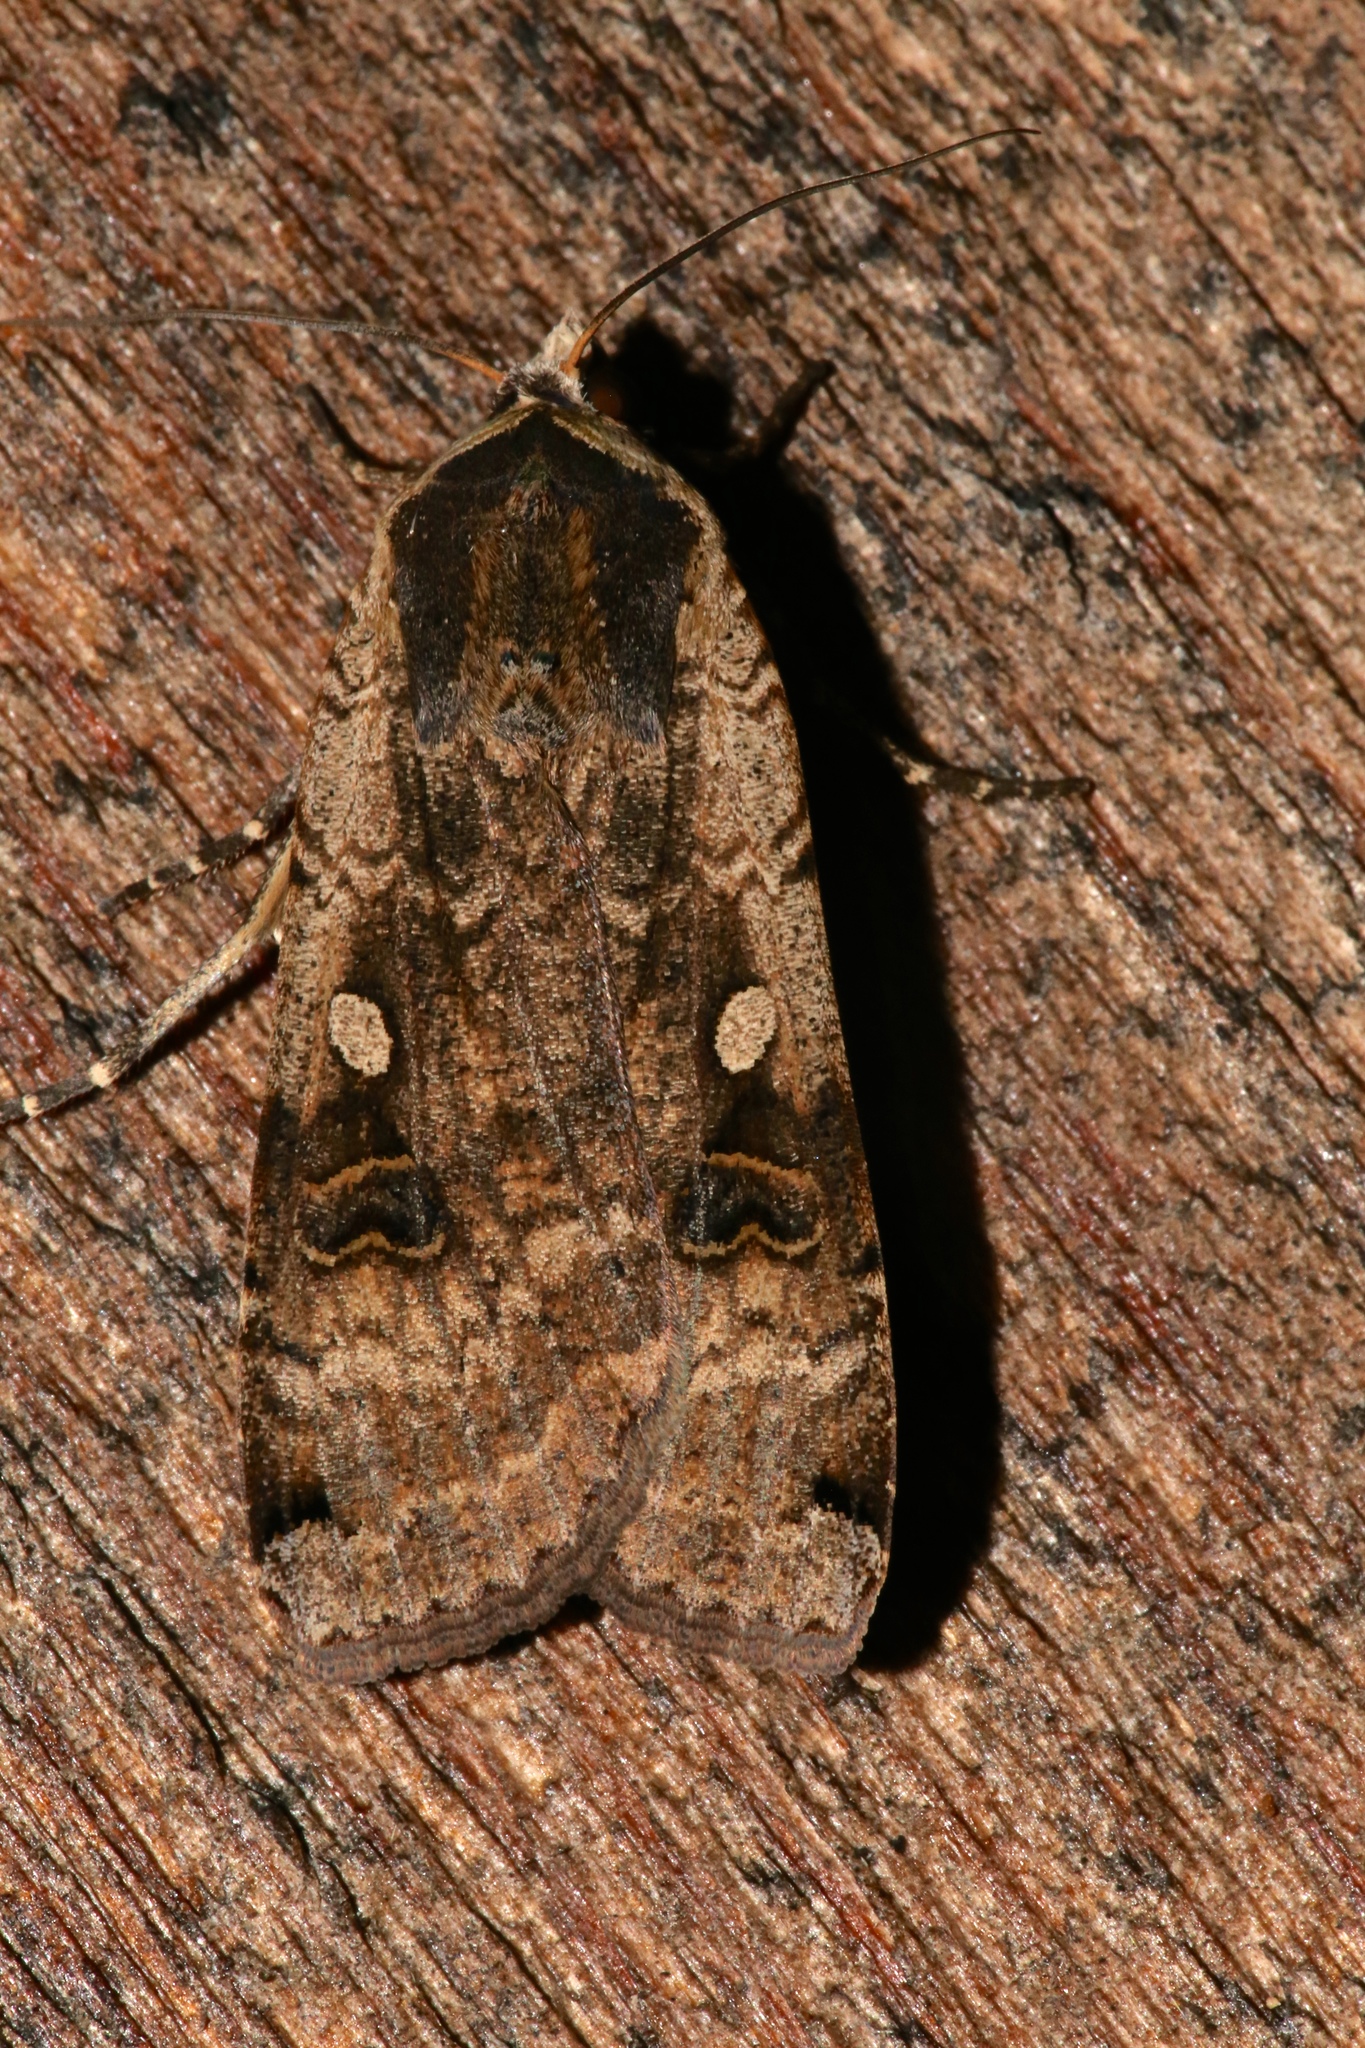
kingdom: Animalia
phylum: Arthropoda
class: Insecta
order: Lepidoptera
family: Noctuidae
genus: Euxoa
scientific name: Euxoa tessellata
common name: Striped cutworm
